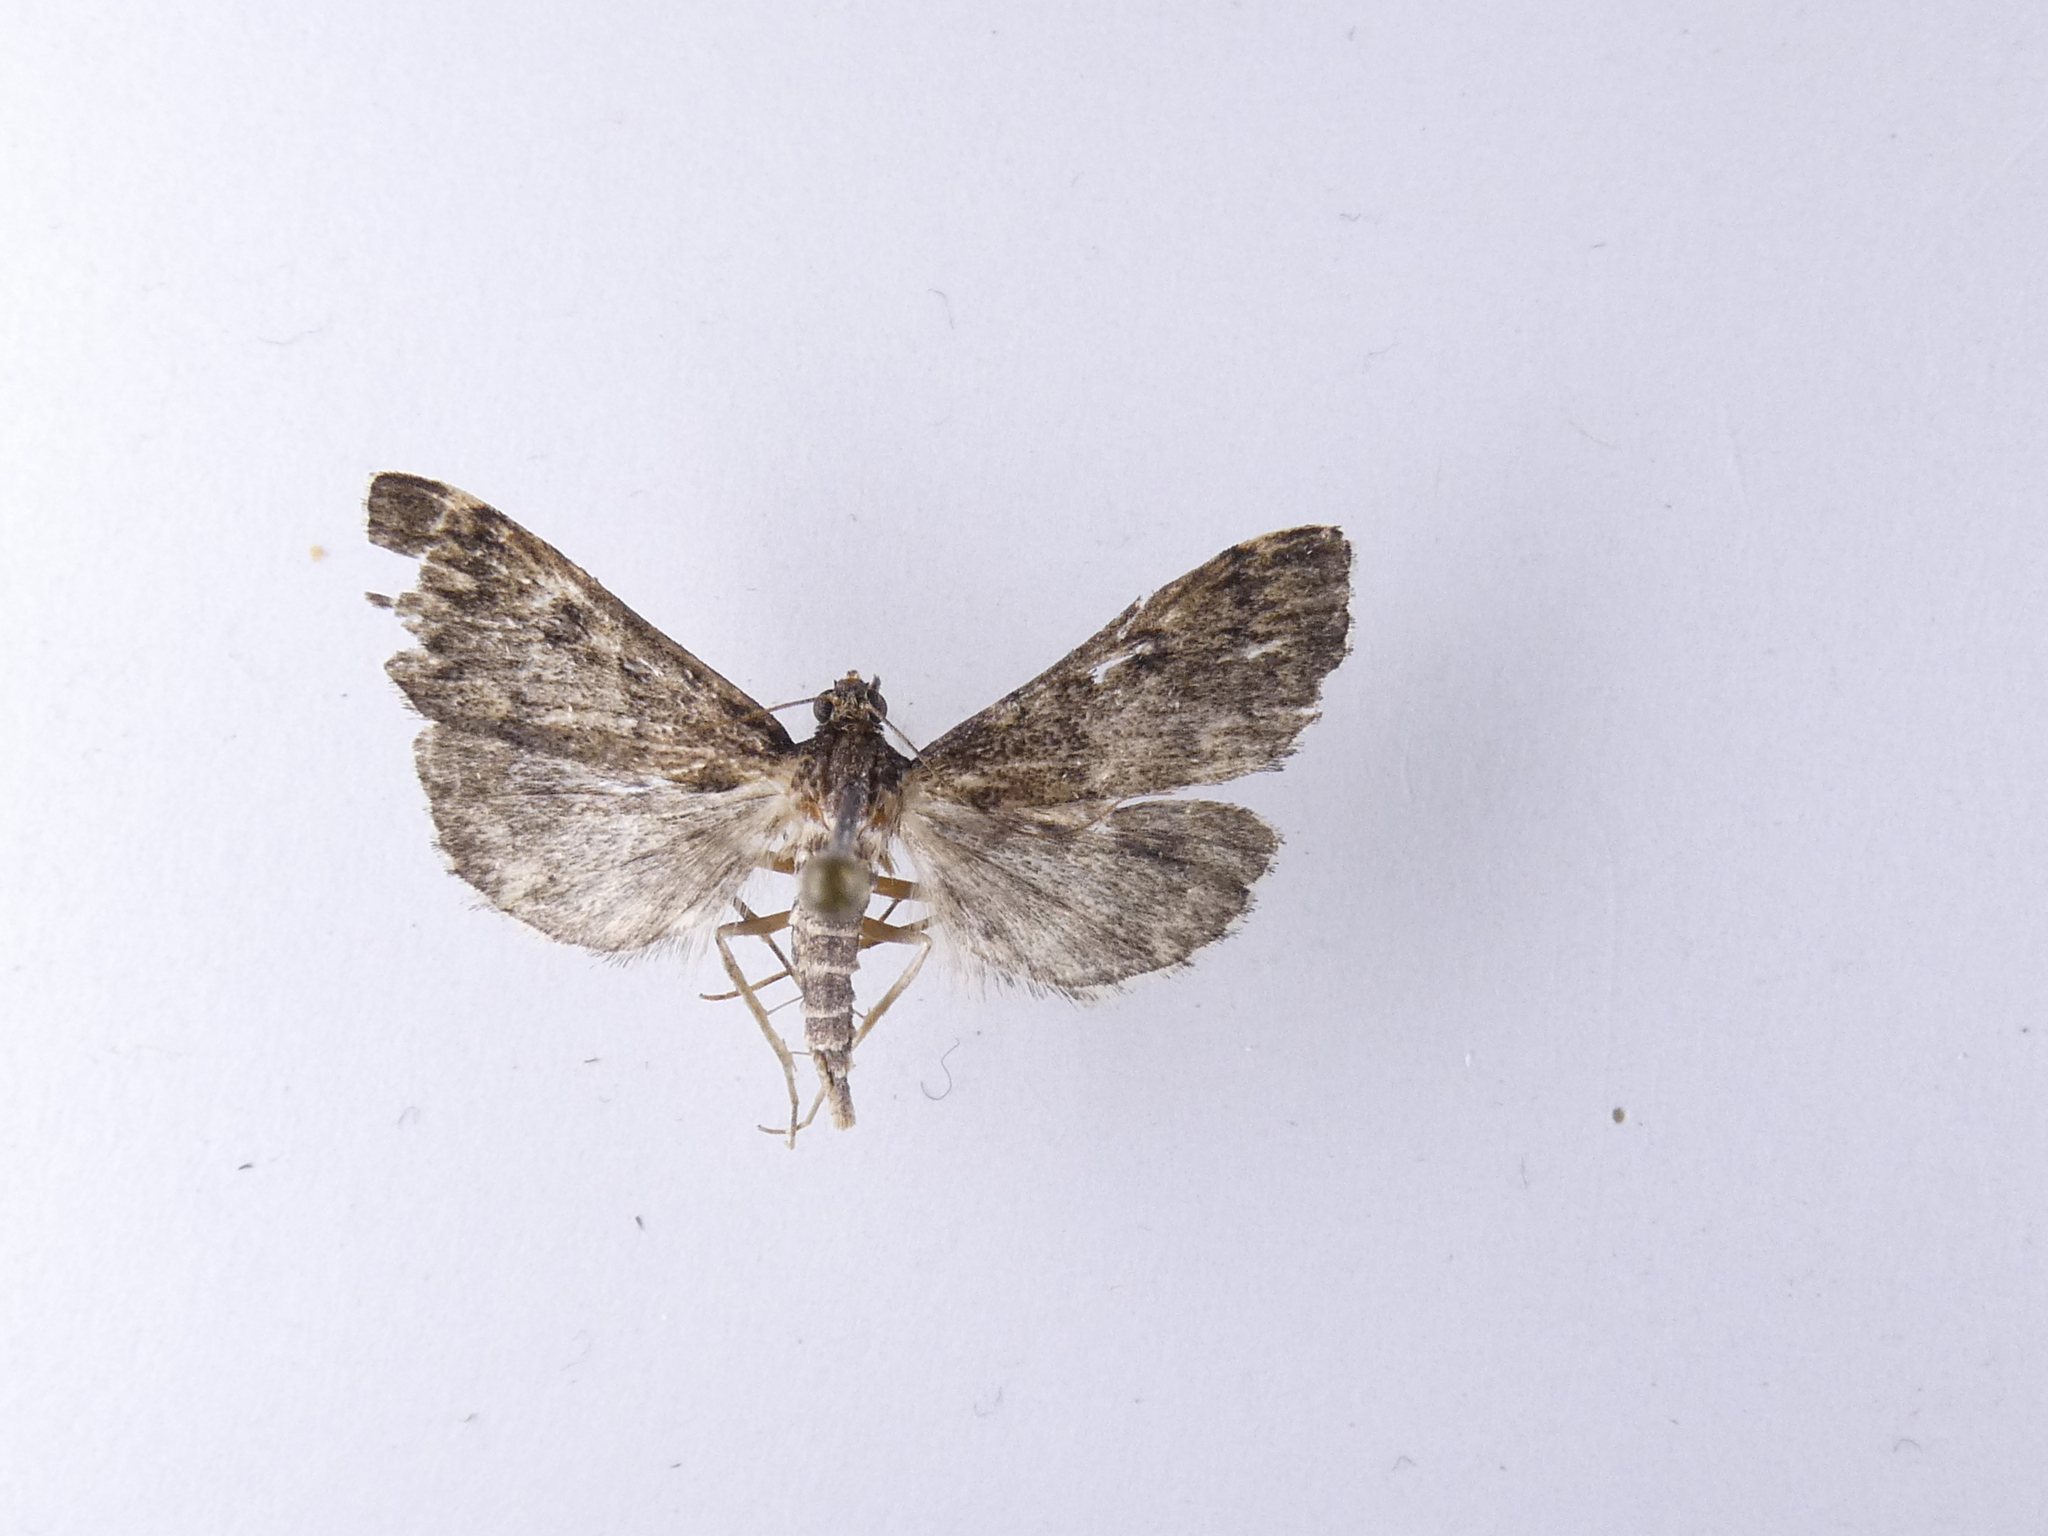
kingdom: Animalia
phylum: Arthropoda
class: Insecta
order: Lepidoptera
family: Crambidae
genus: Loxostege
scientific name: Loxostege Proternia philocapna
